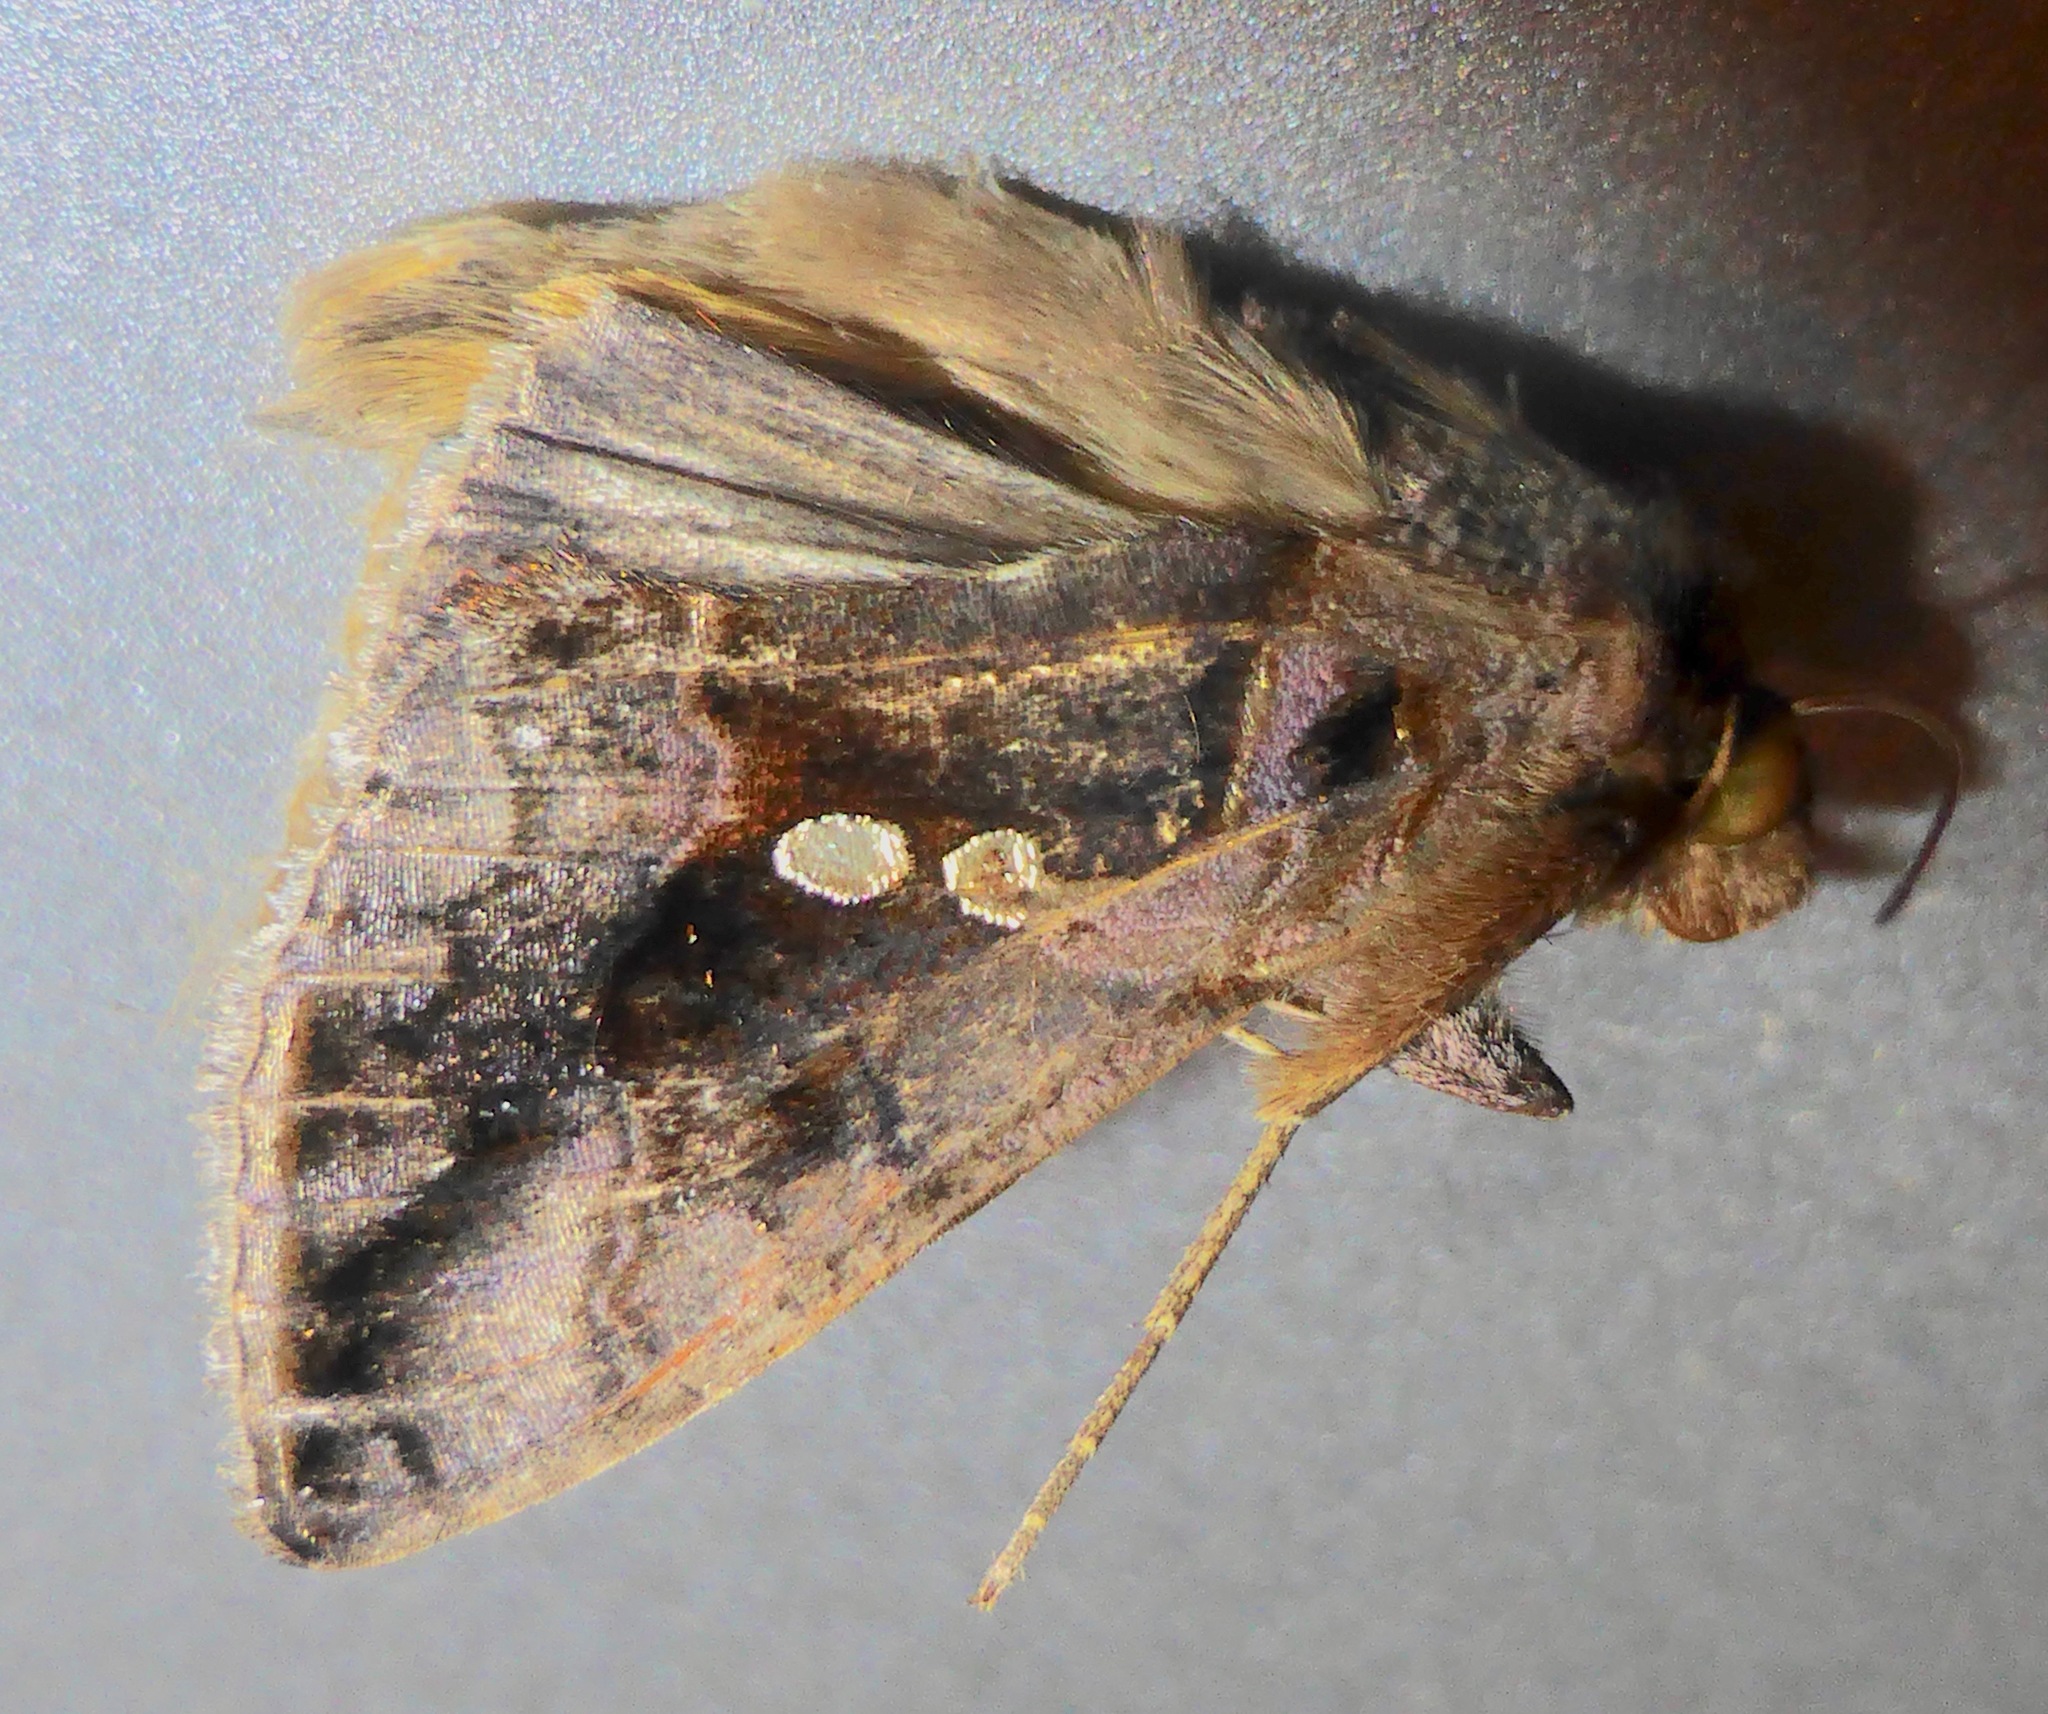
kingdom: Animalia
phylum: Arthropoda
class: Insecta
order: Lepidoptera
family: Noctuidae
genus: Chrysodeixis
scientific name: Chrysodeixis eriosoma
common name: Green garden looper
